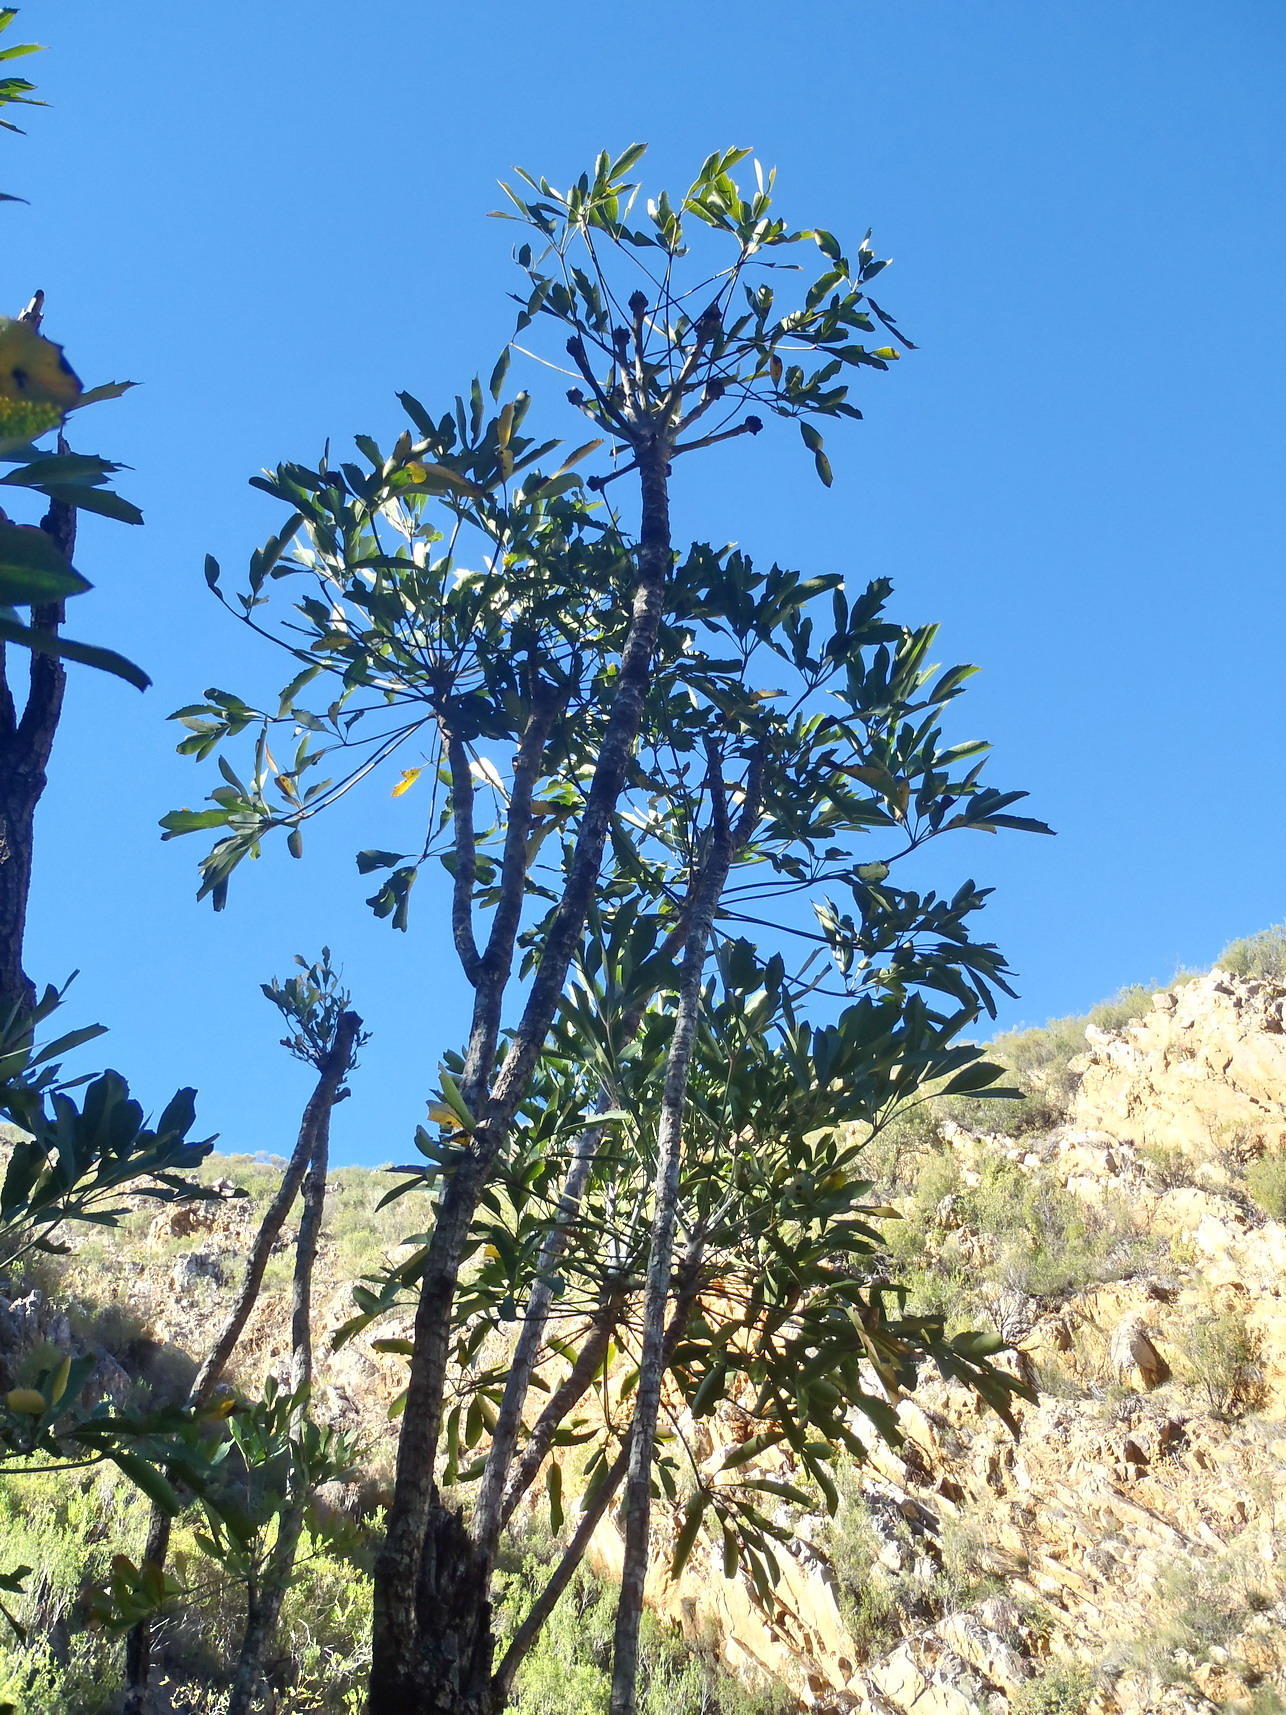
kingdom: Plantae
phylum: Tracheophyta
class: Magnoliopsida
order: Apiales
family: Araliaceae
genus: Cussonia
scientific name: Cussonia spicata
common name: Common cabbagetree
